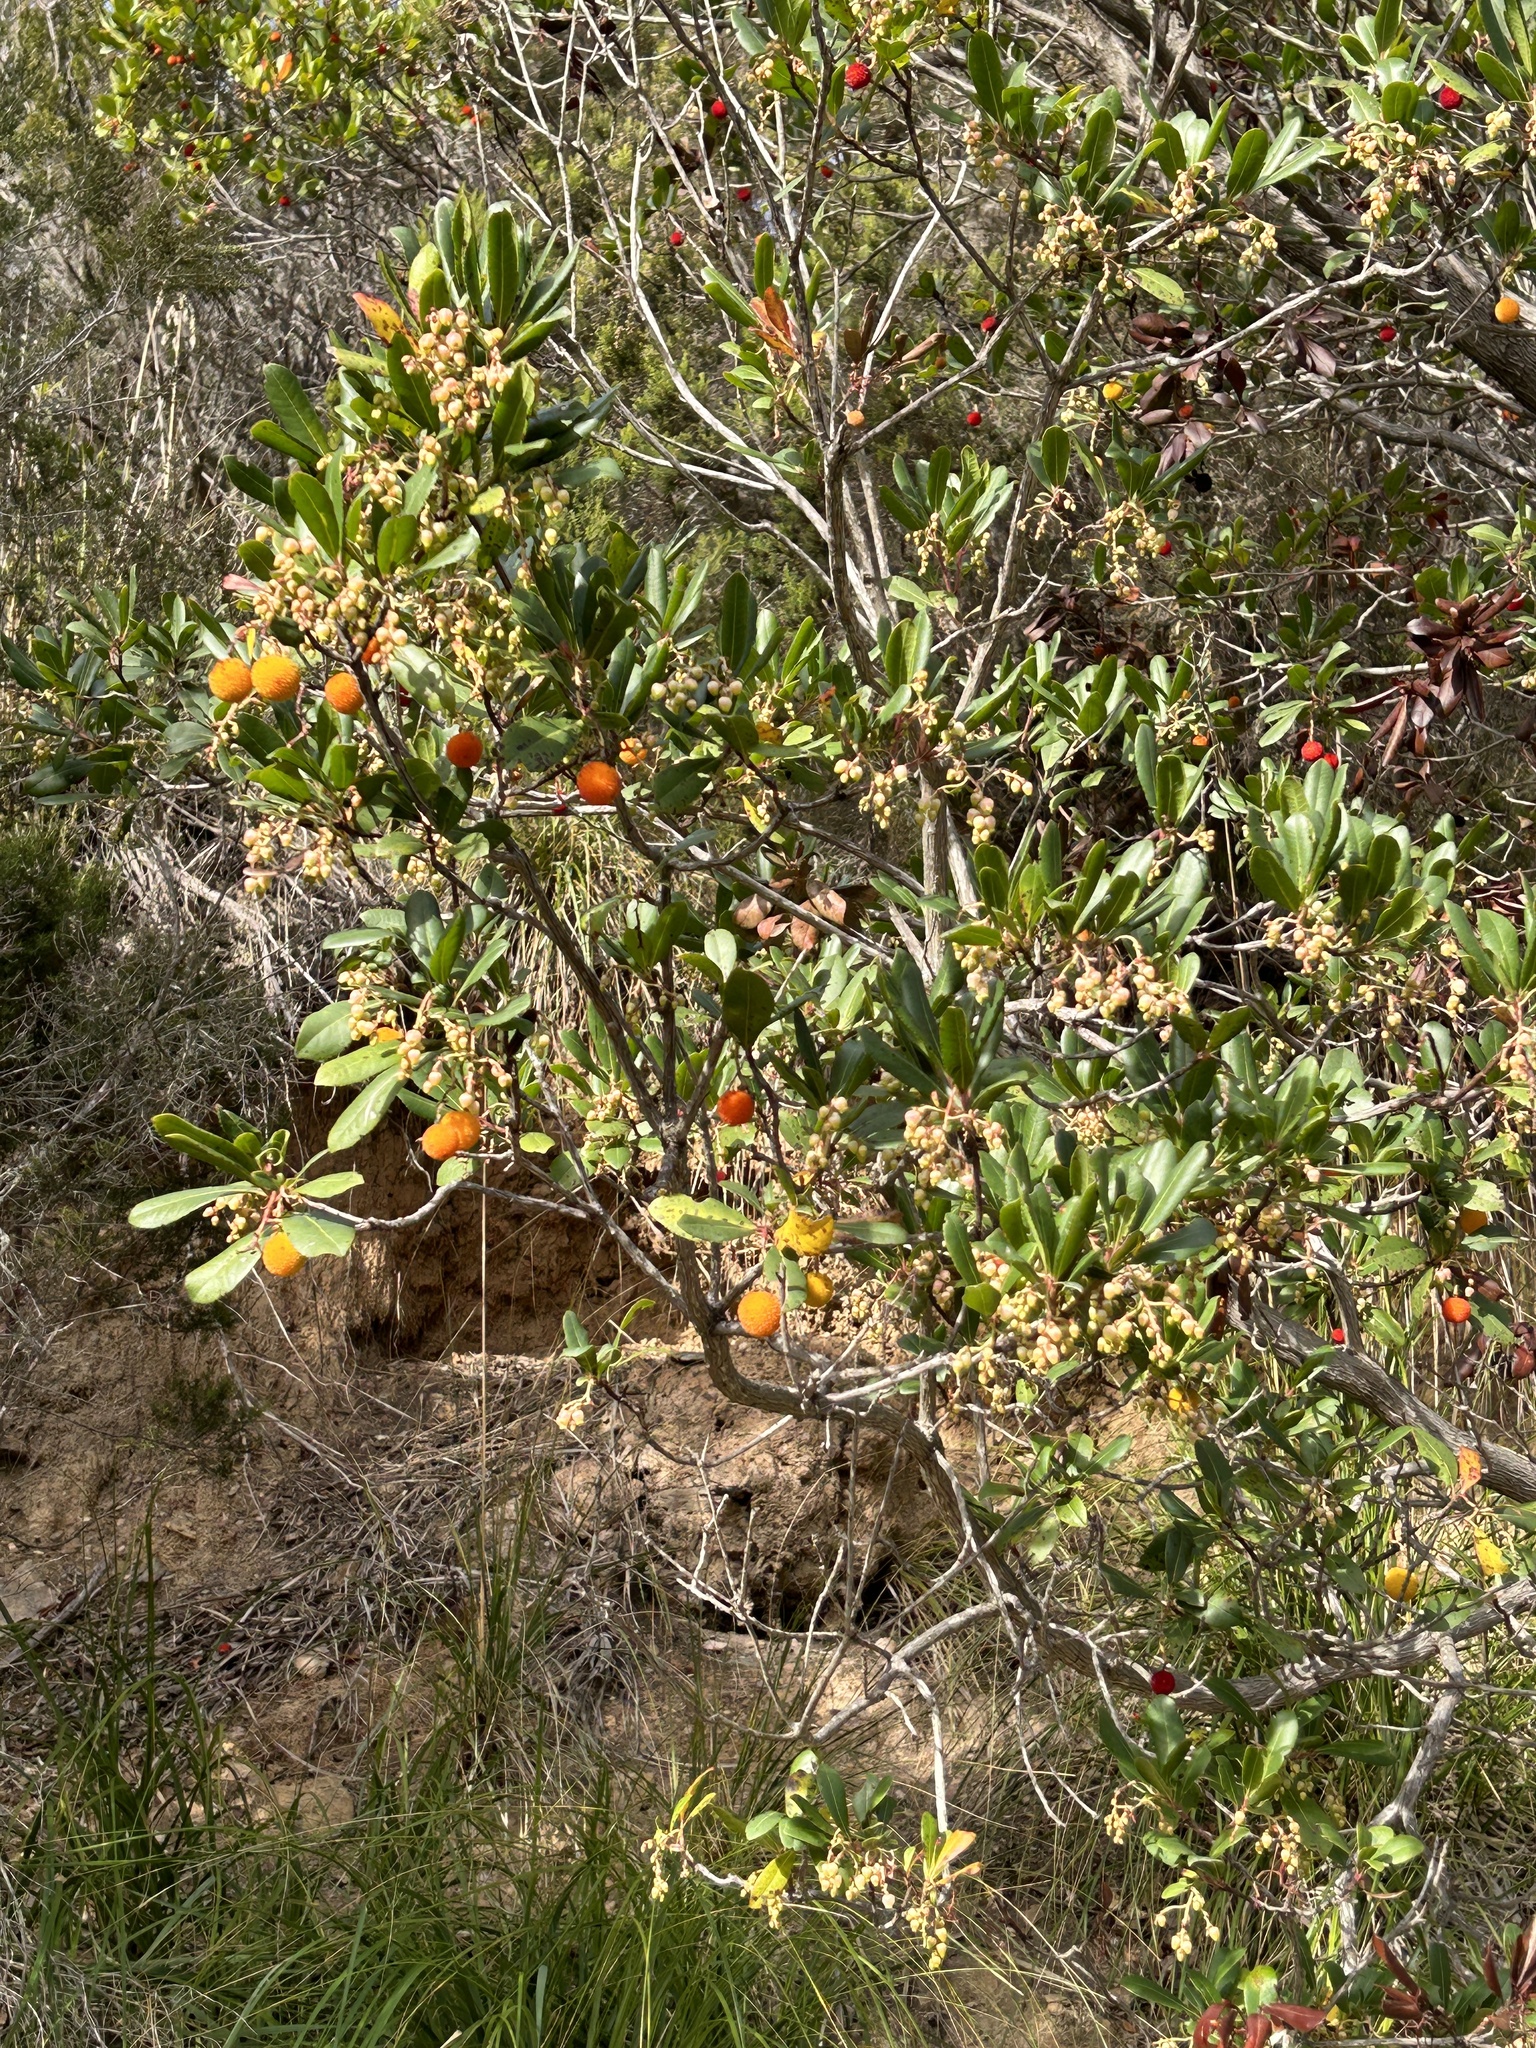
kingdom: Plantae
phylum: Tracheophyta
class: Magnoliopsida
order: Ericales
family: Ericaceae
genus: Arbutus
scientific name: Arbutus unedo
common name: Strawberry-tree
